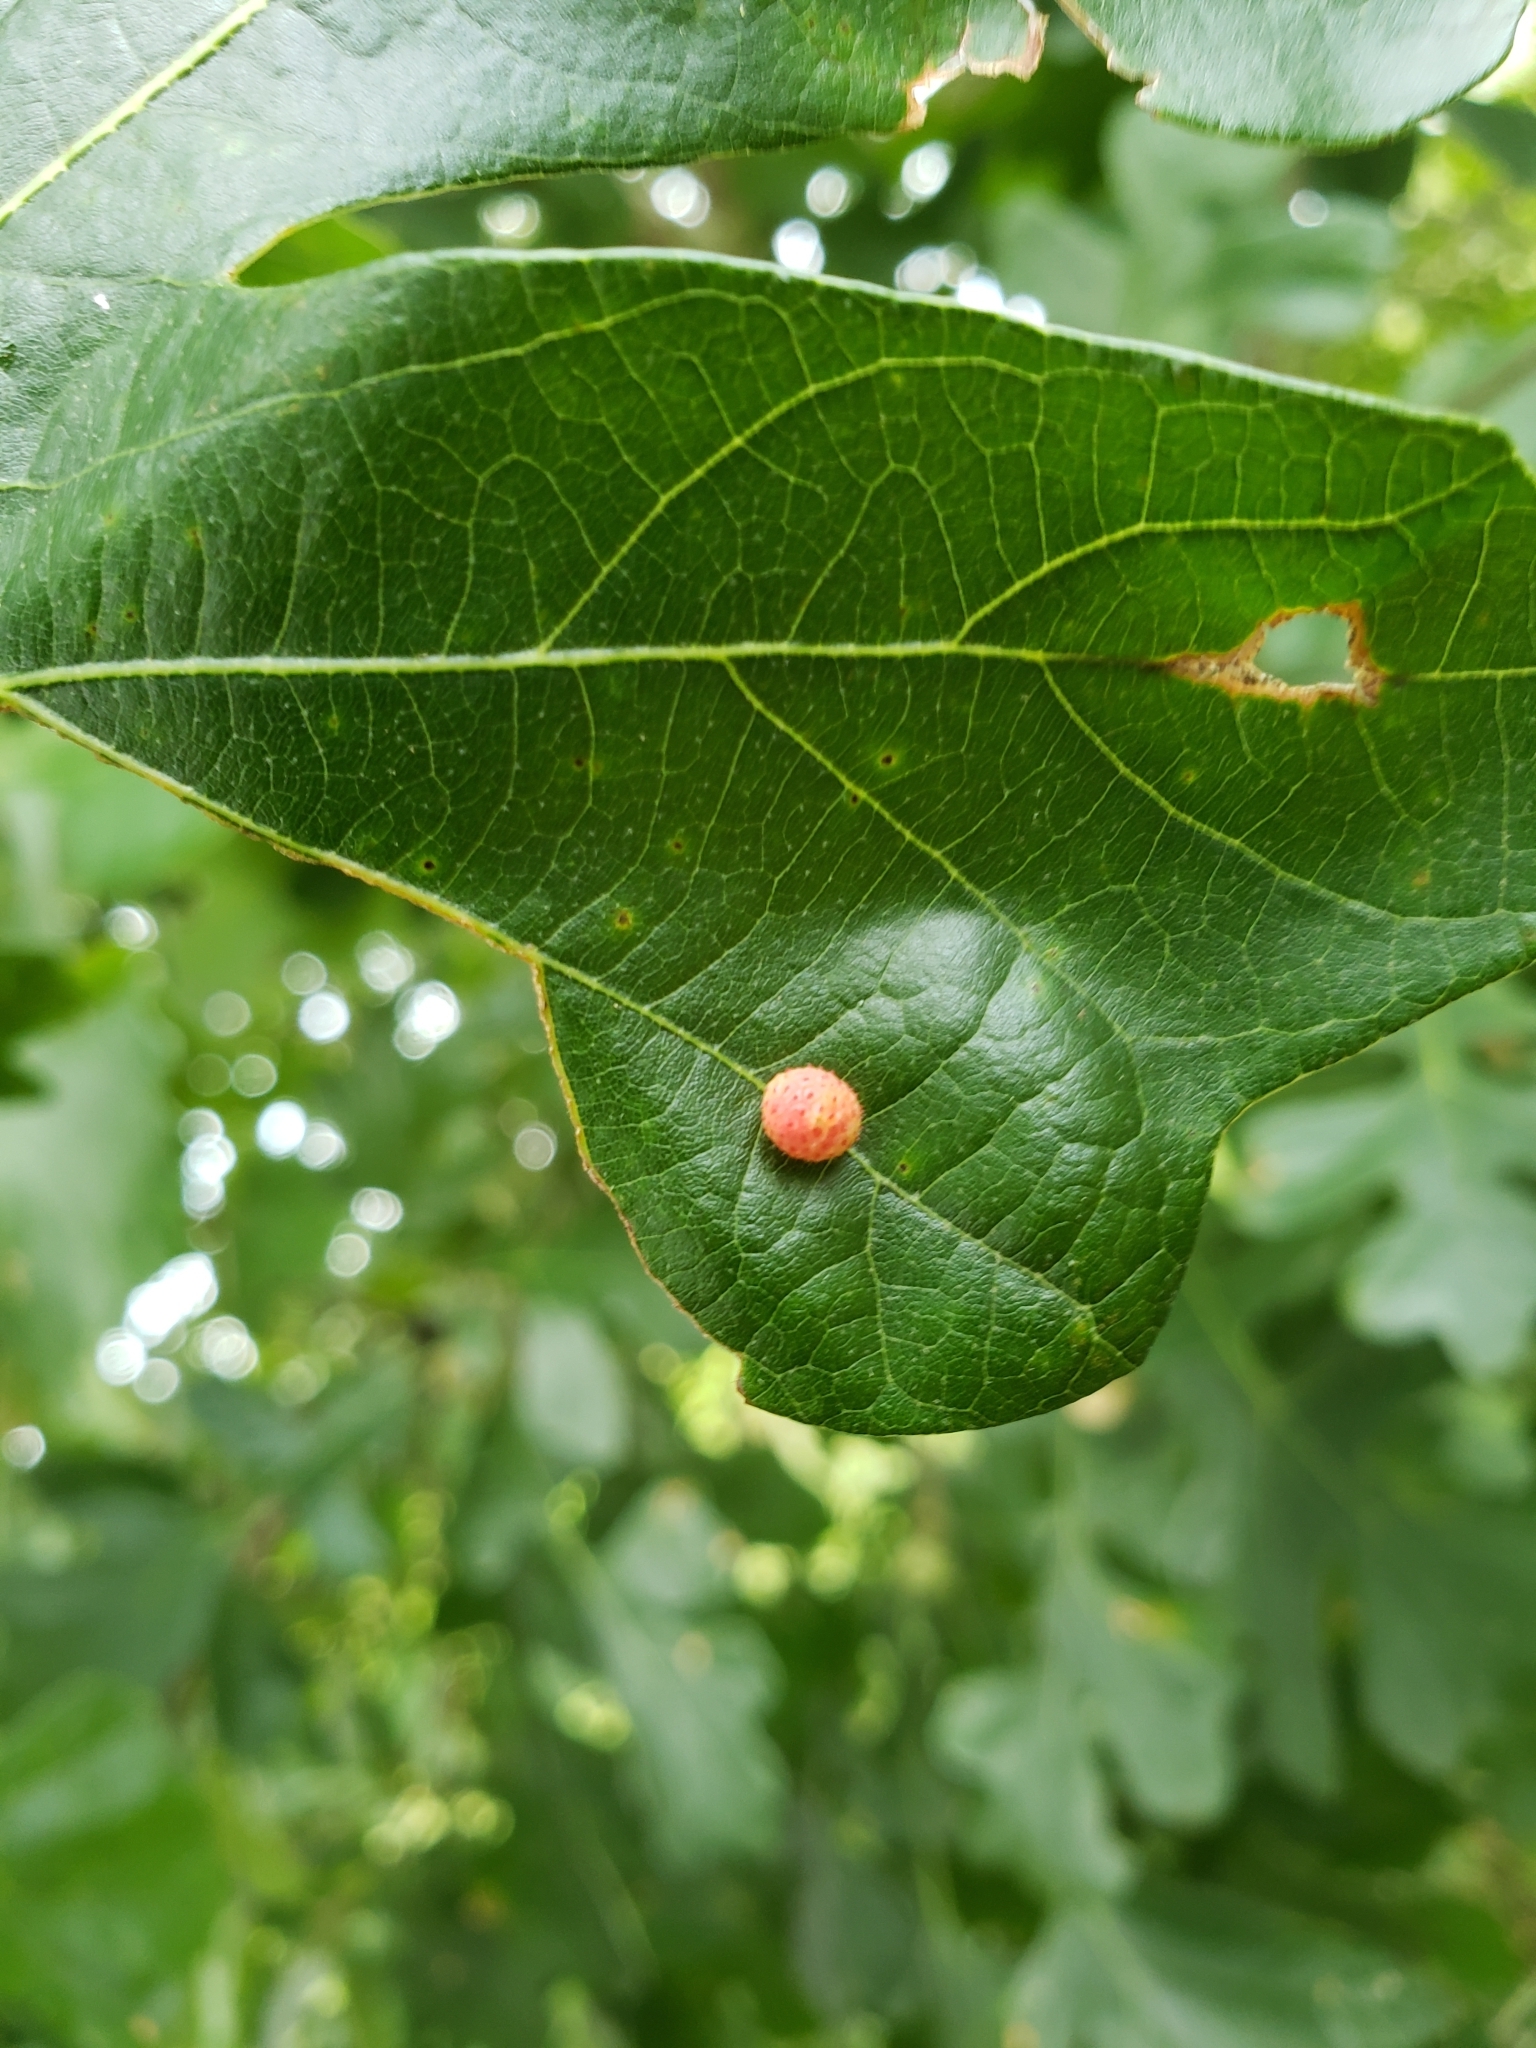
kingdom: Animalia
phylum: Arthropoda
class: Insecta
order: Hymenoptera
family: Cynipidae
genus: Acraspis
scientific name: Acraspis quercushirta
